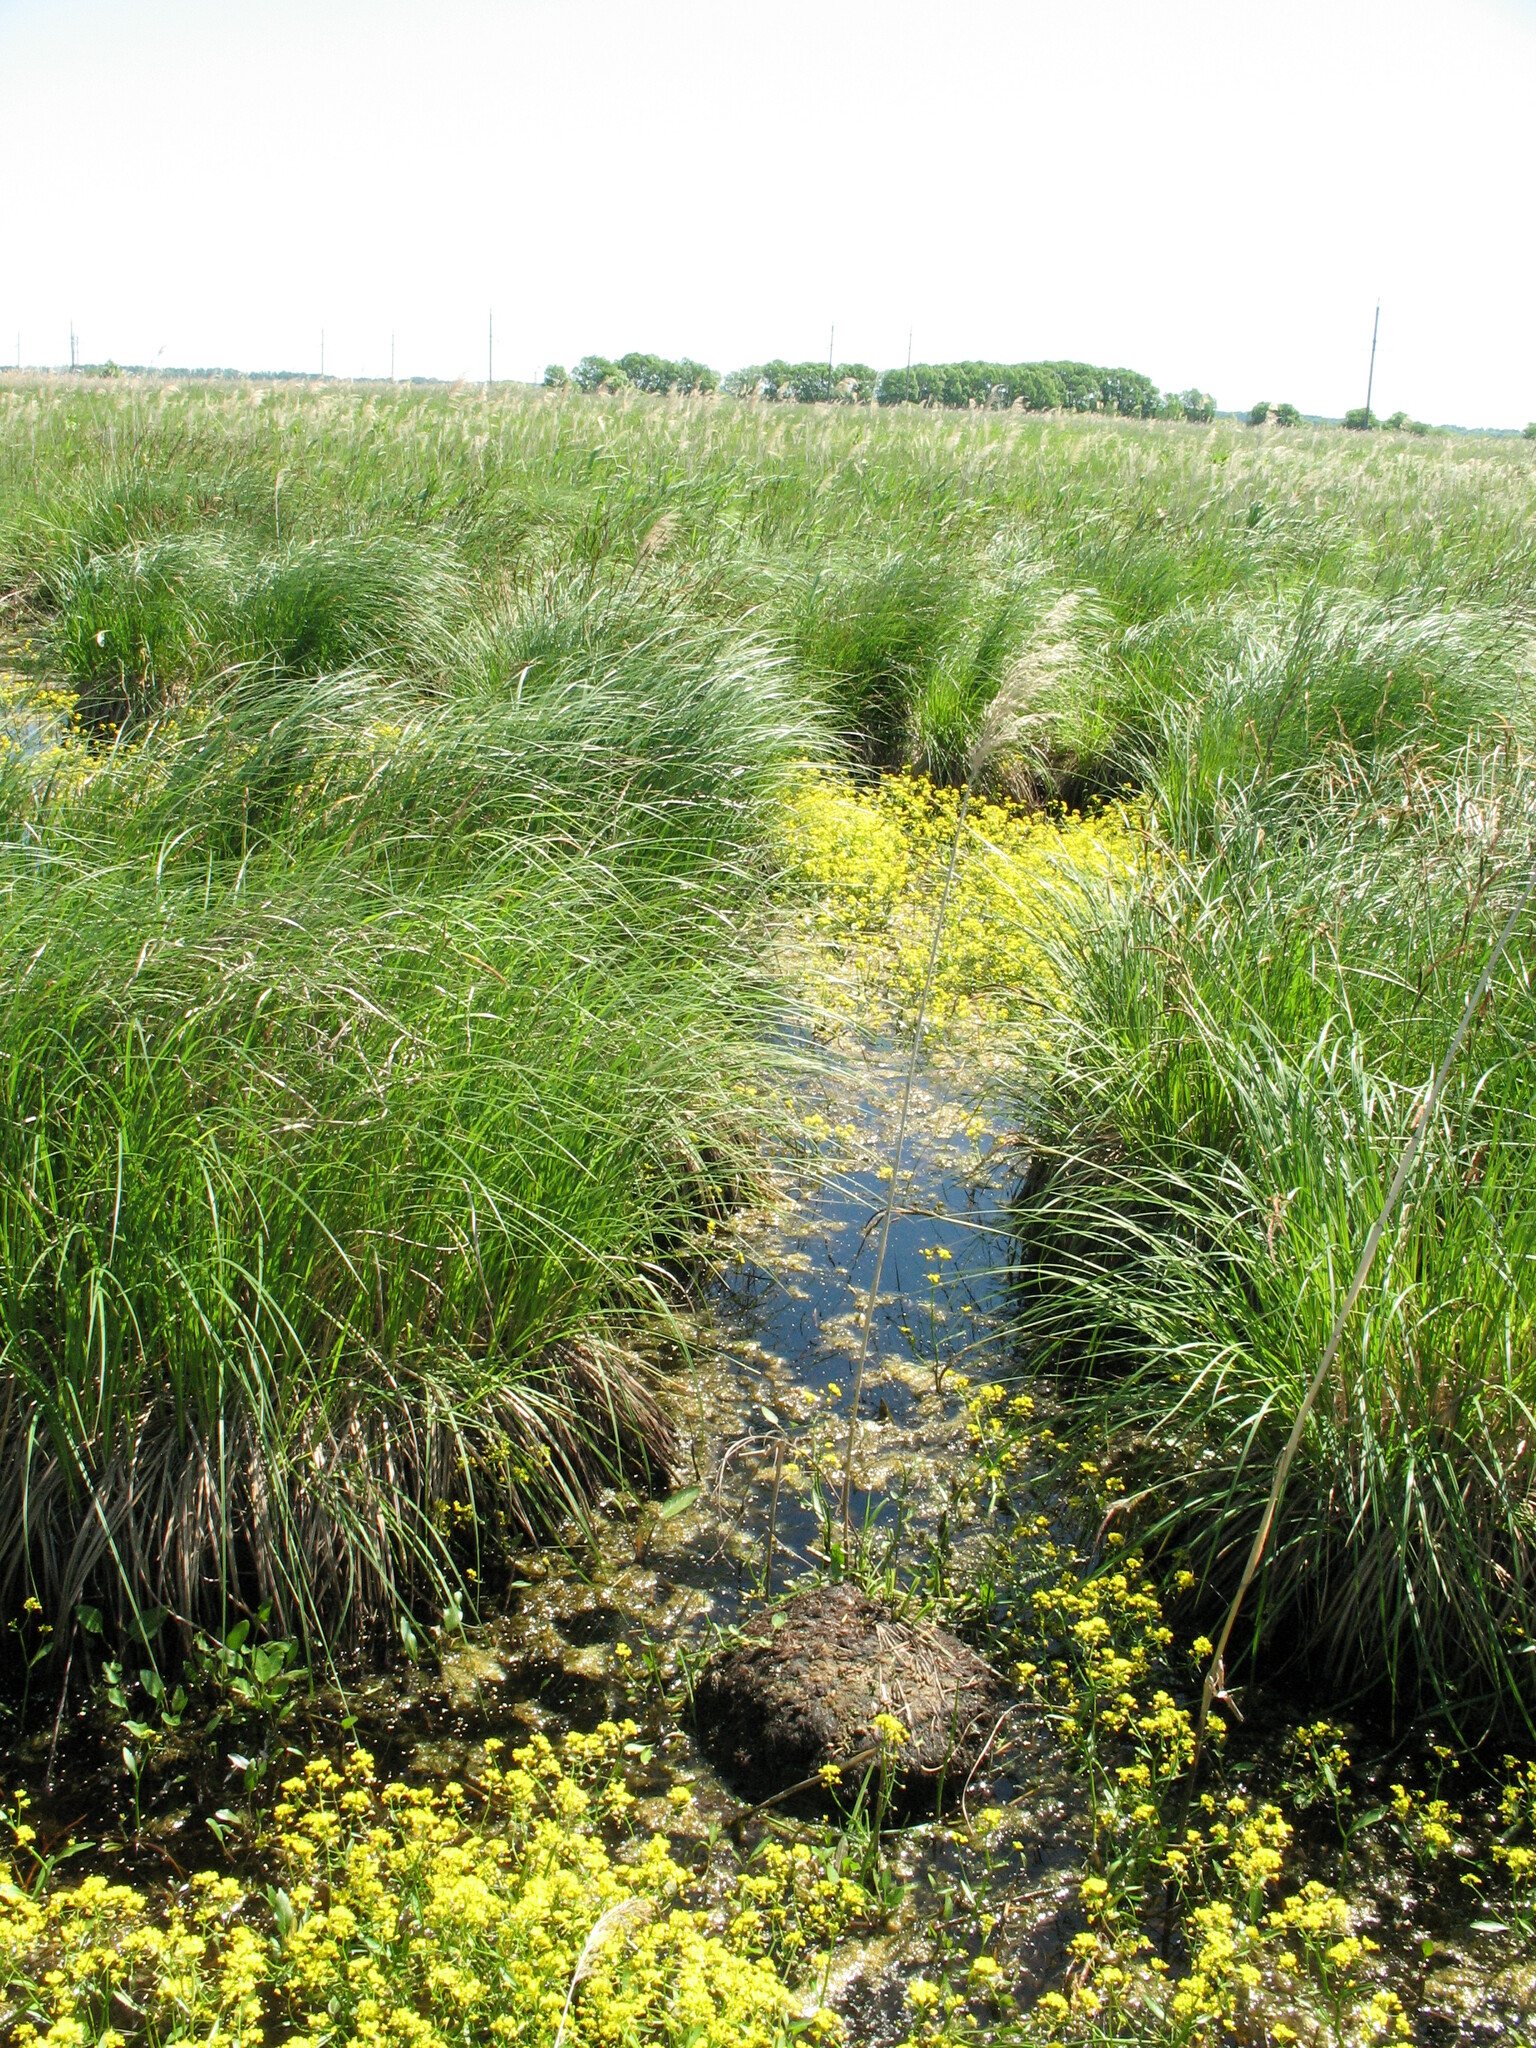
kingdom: Plantae
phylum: Tracheophyta
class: Magnoliopsida
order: Brassicales
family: Brassicaceae
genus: Rorippa
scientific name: Rorippa amphibia
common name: Great yellow-cress
